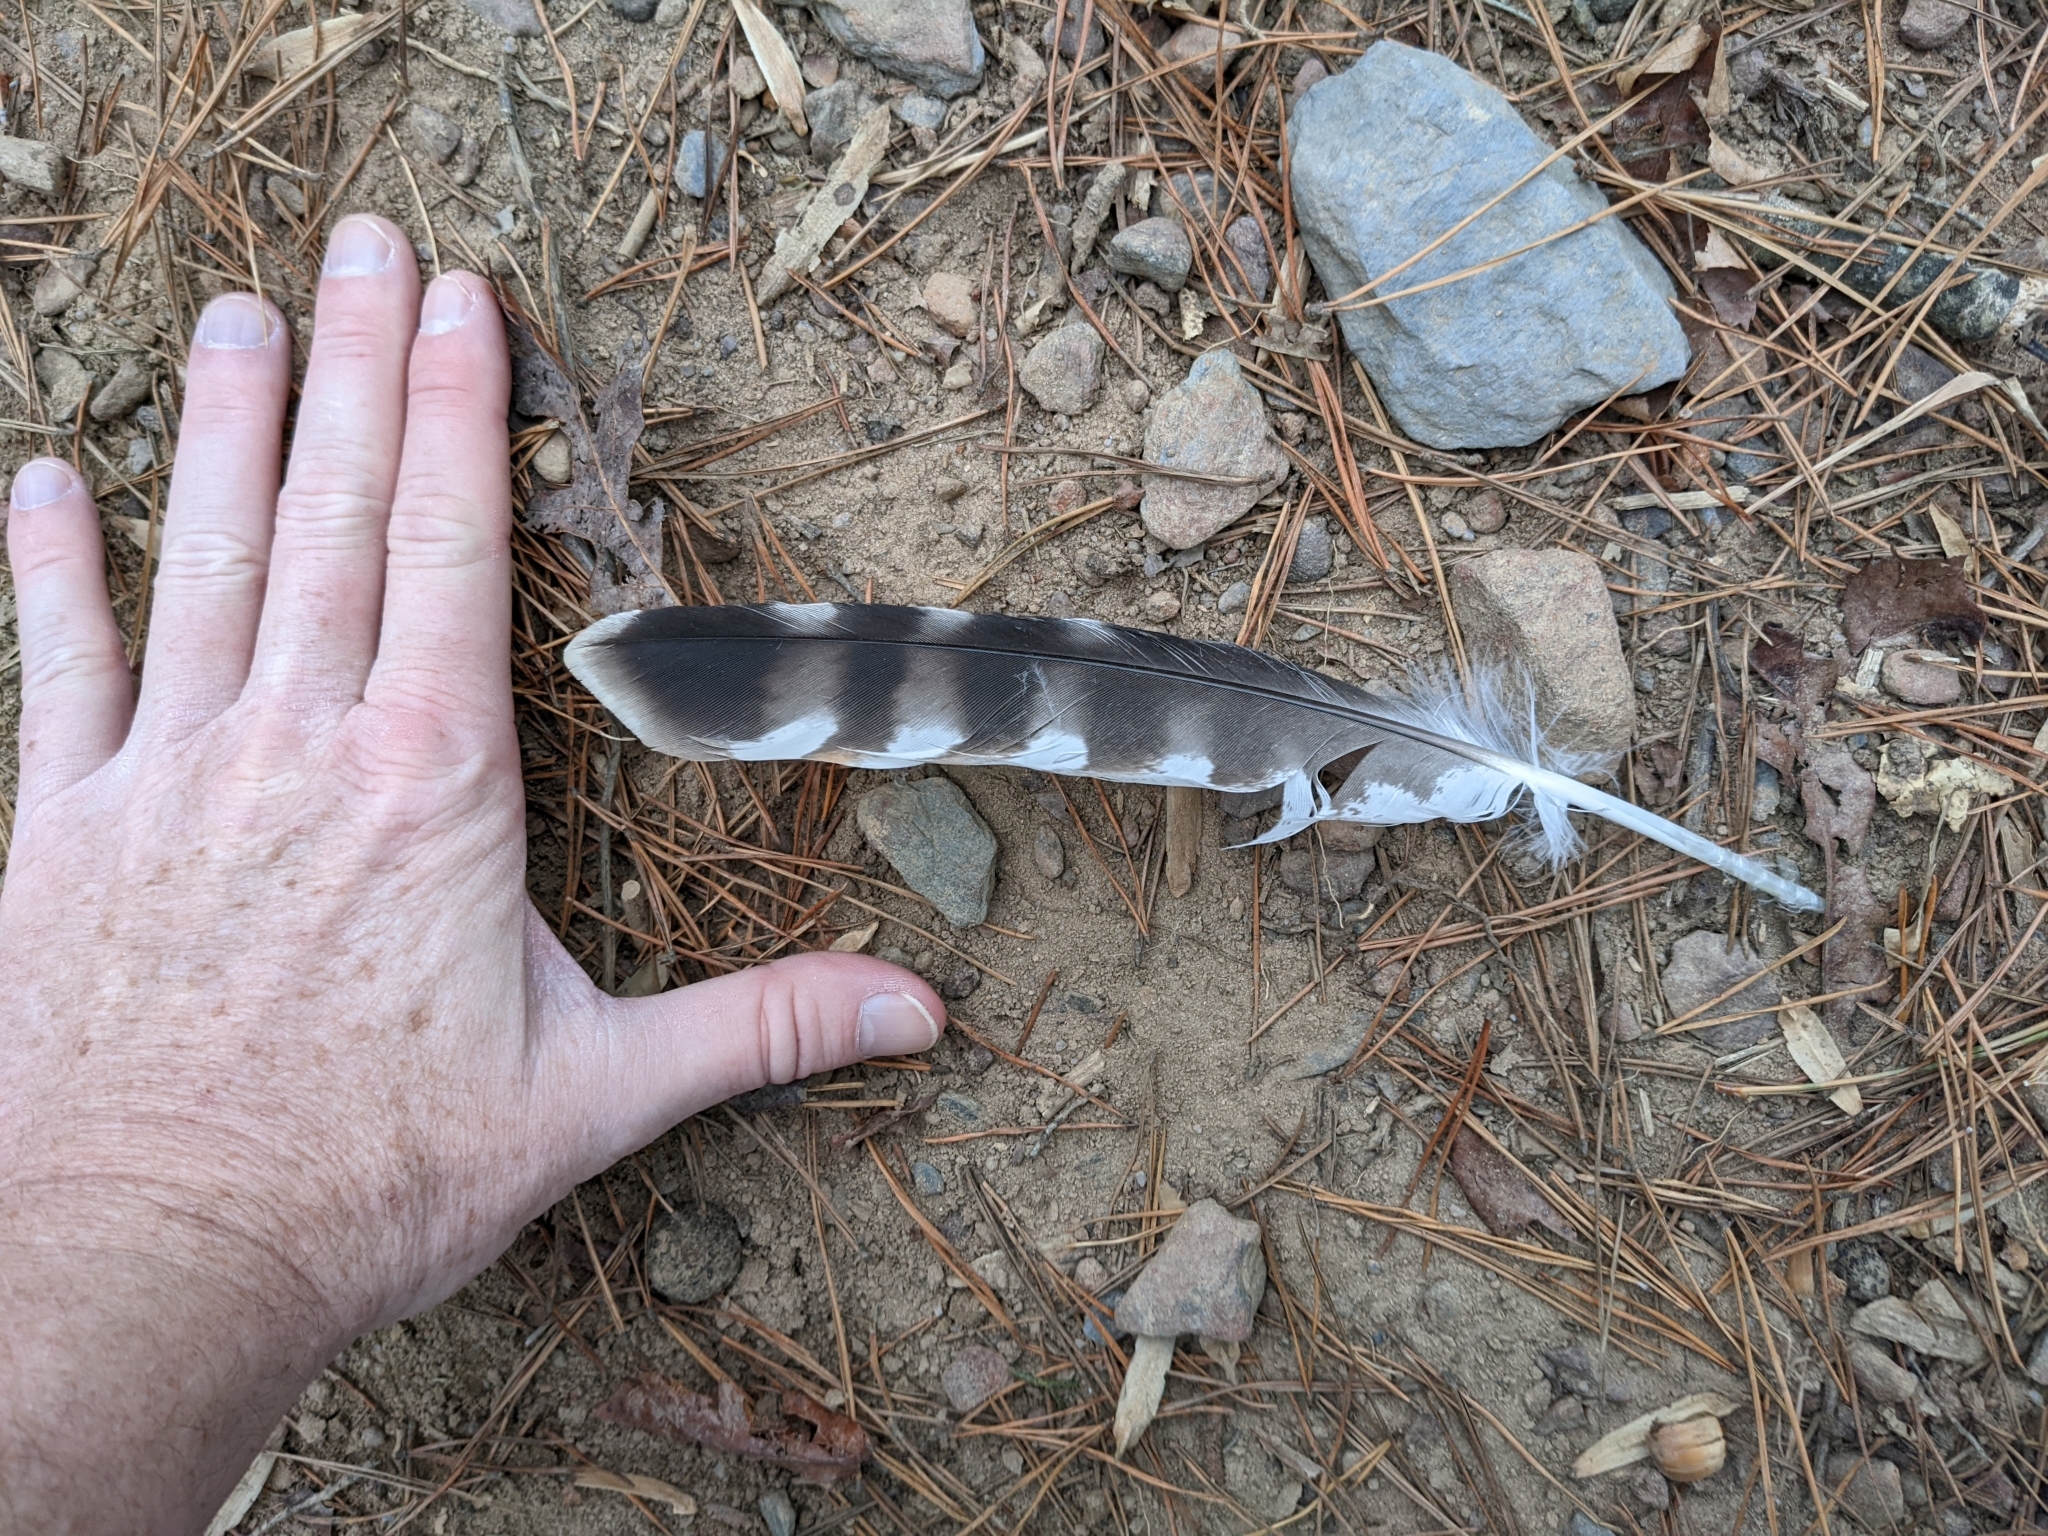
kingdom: Animalia
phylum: Chordata
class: Aves
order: Accipitriformes
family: Accipitridae
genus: Buteo
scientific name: Buteo lineatus
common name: Red-shouldered hawk
